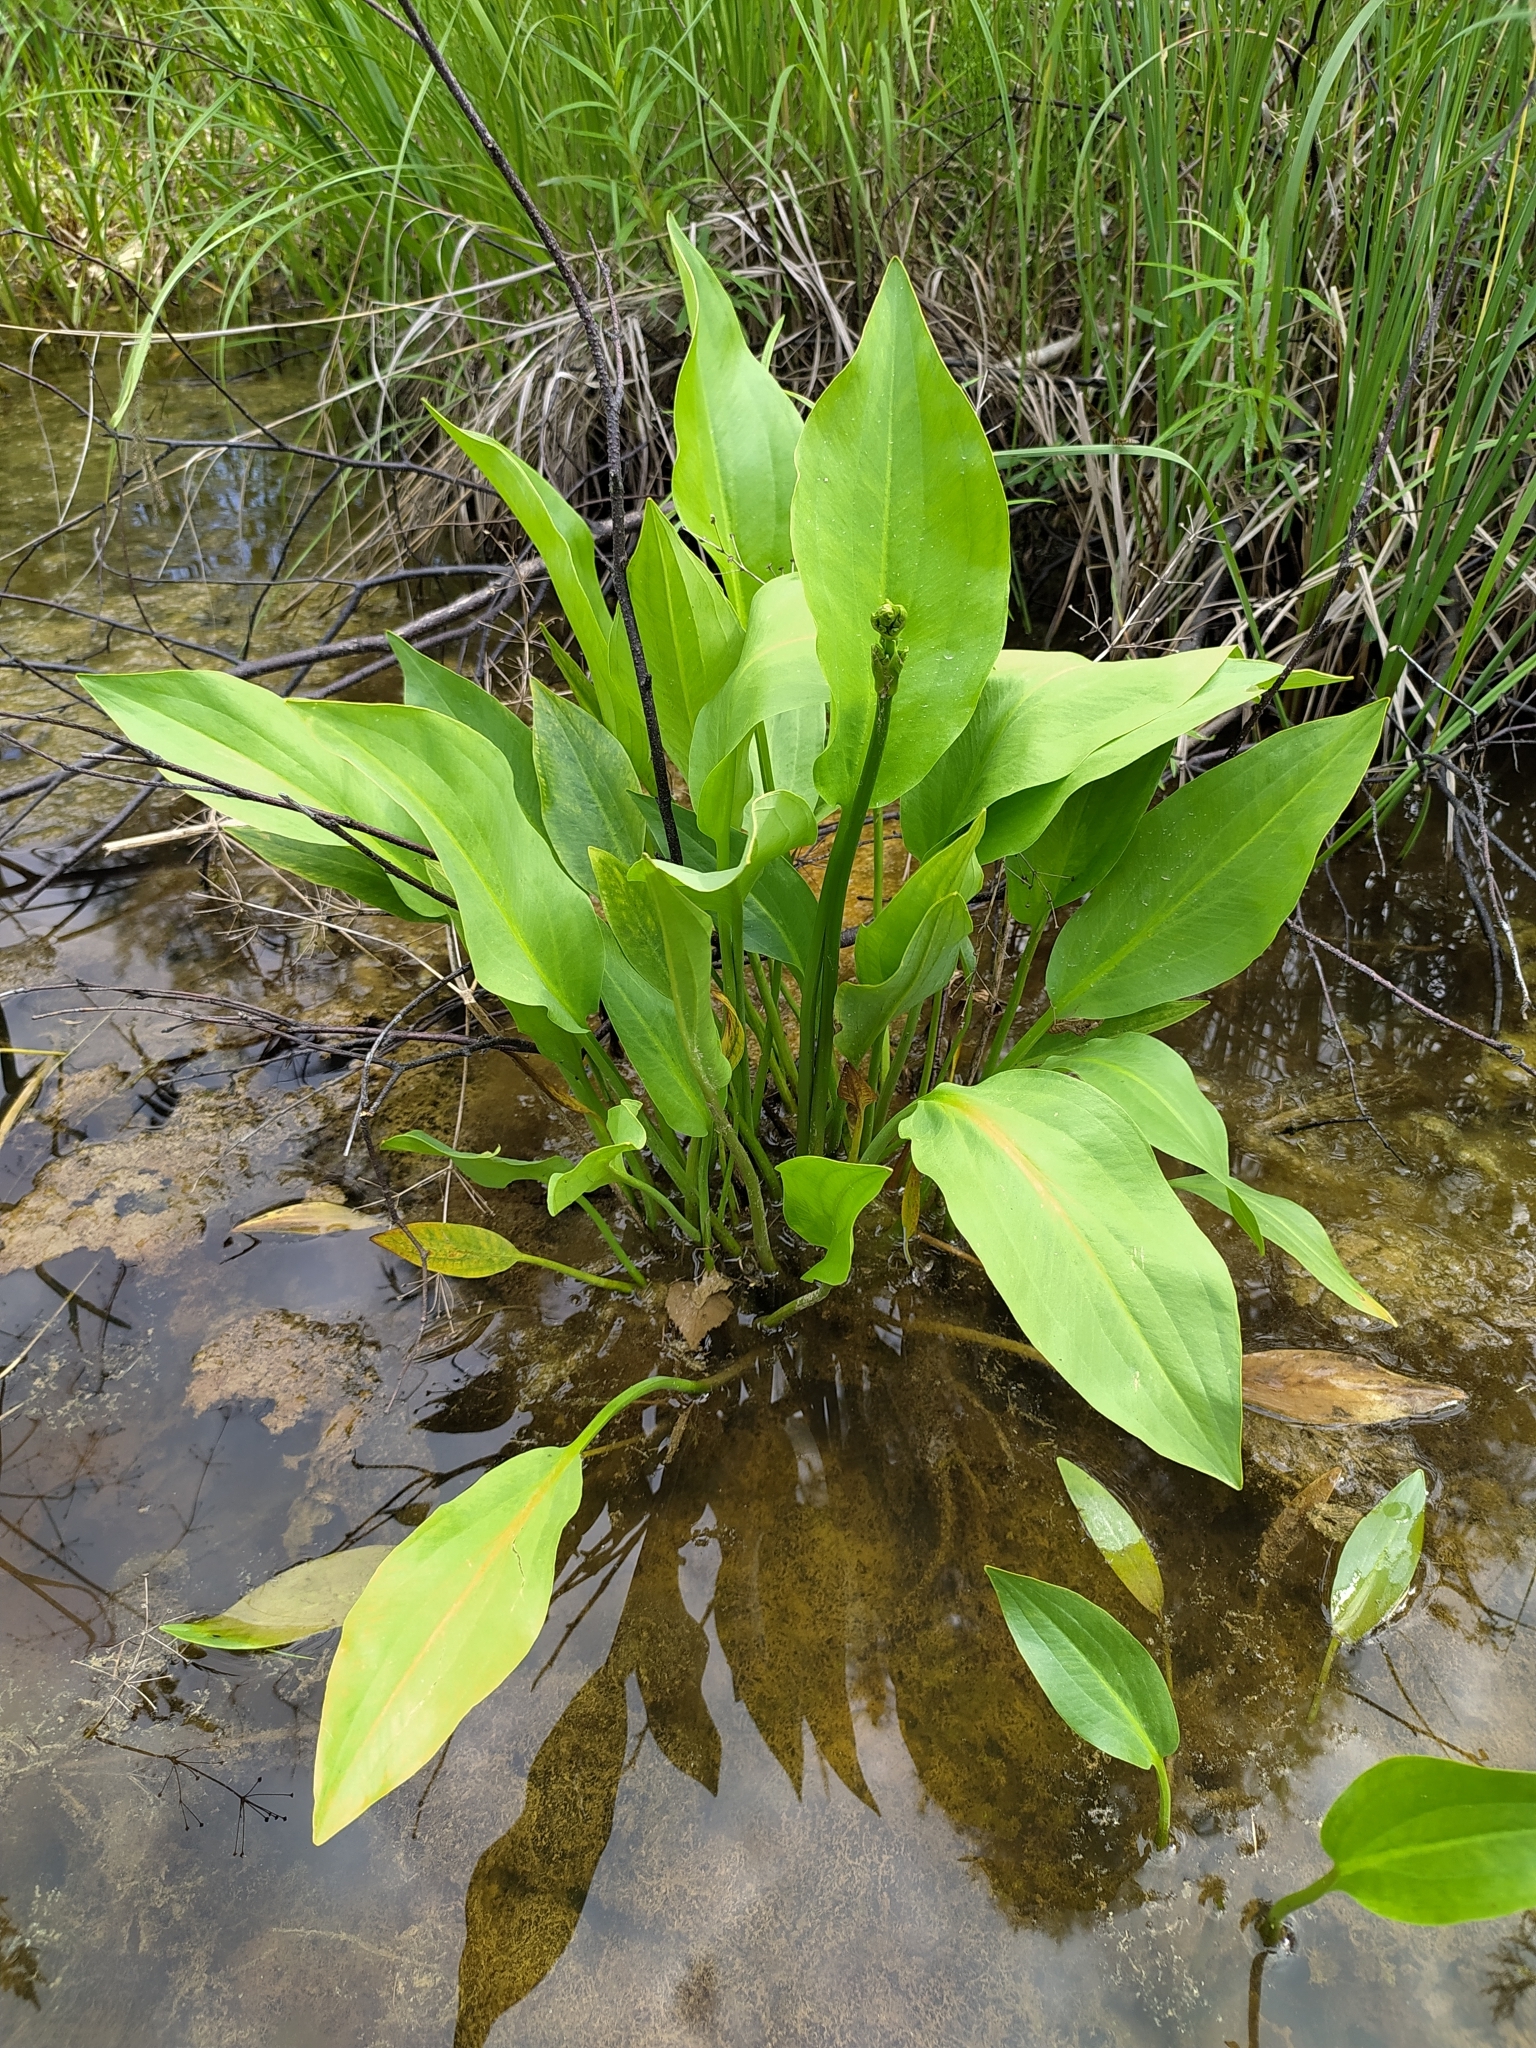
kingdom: Plantae
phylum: Tracheophyta
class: Liliopsida
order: Alismatales
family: Alismataceae
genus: Alisma
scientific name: Alisma plantago-aquatica
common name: Water-plantain
